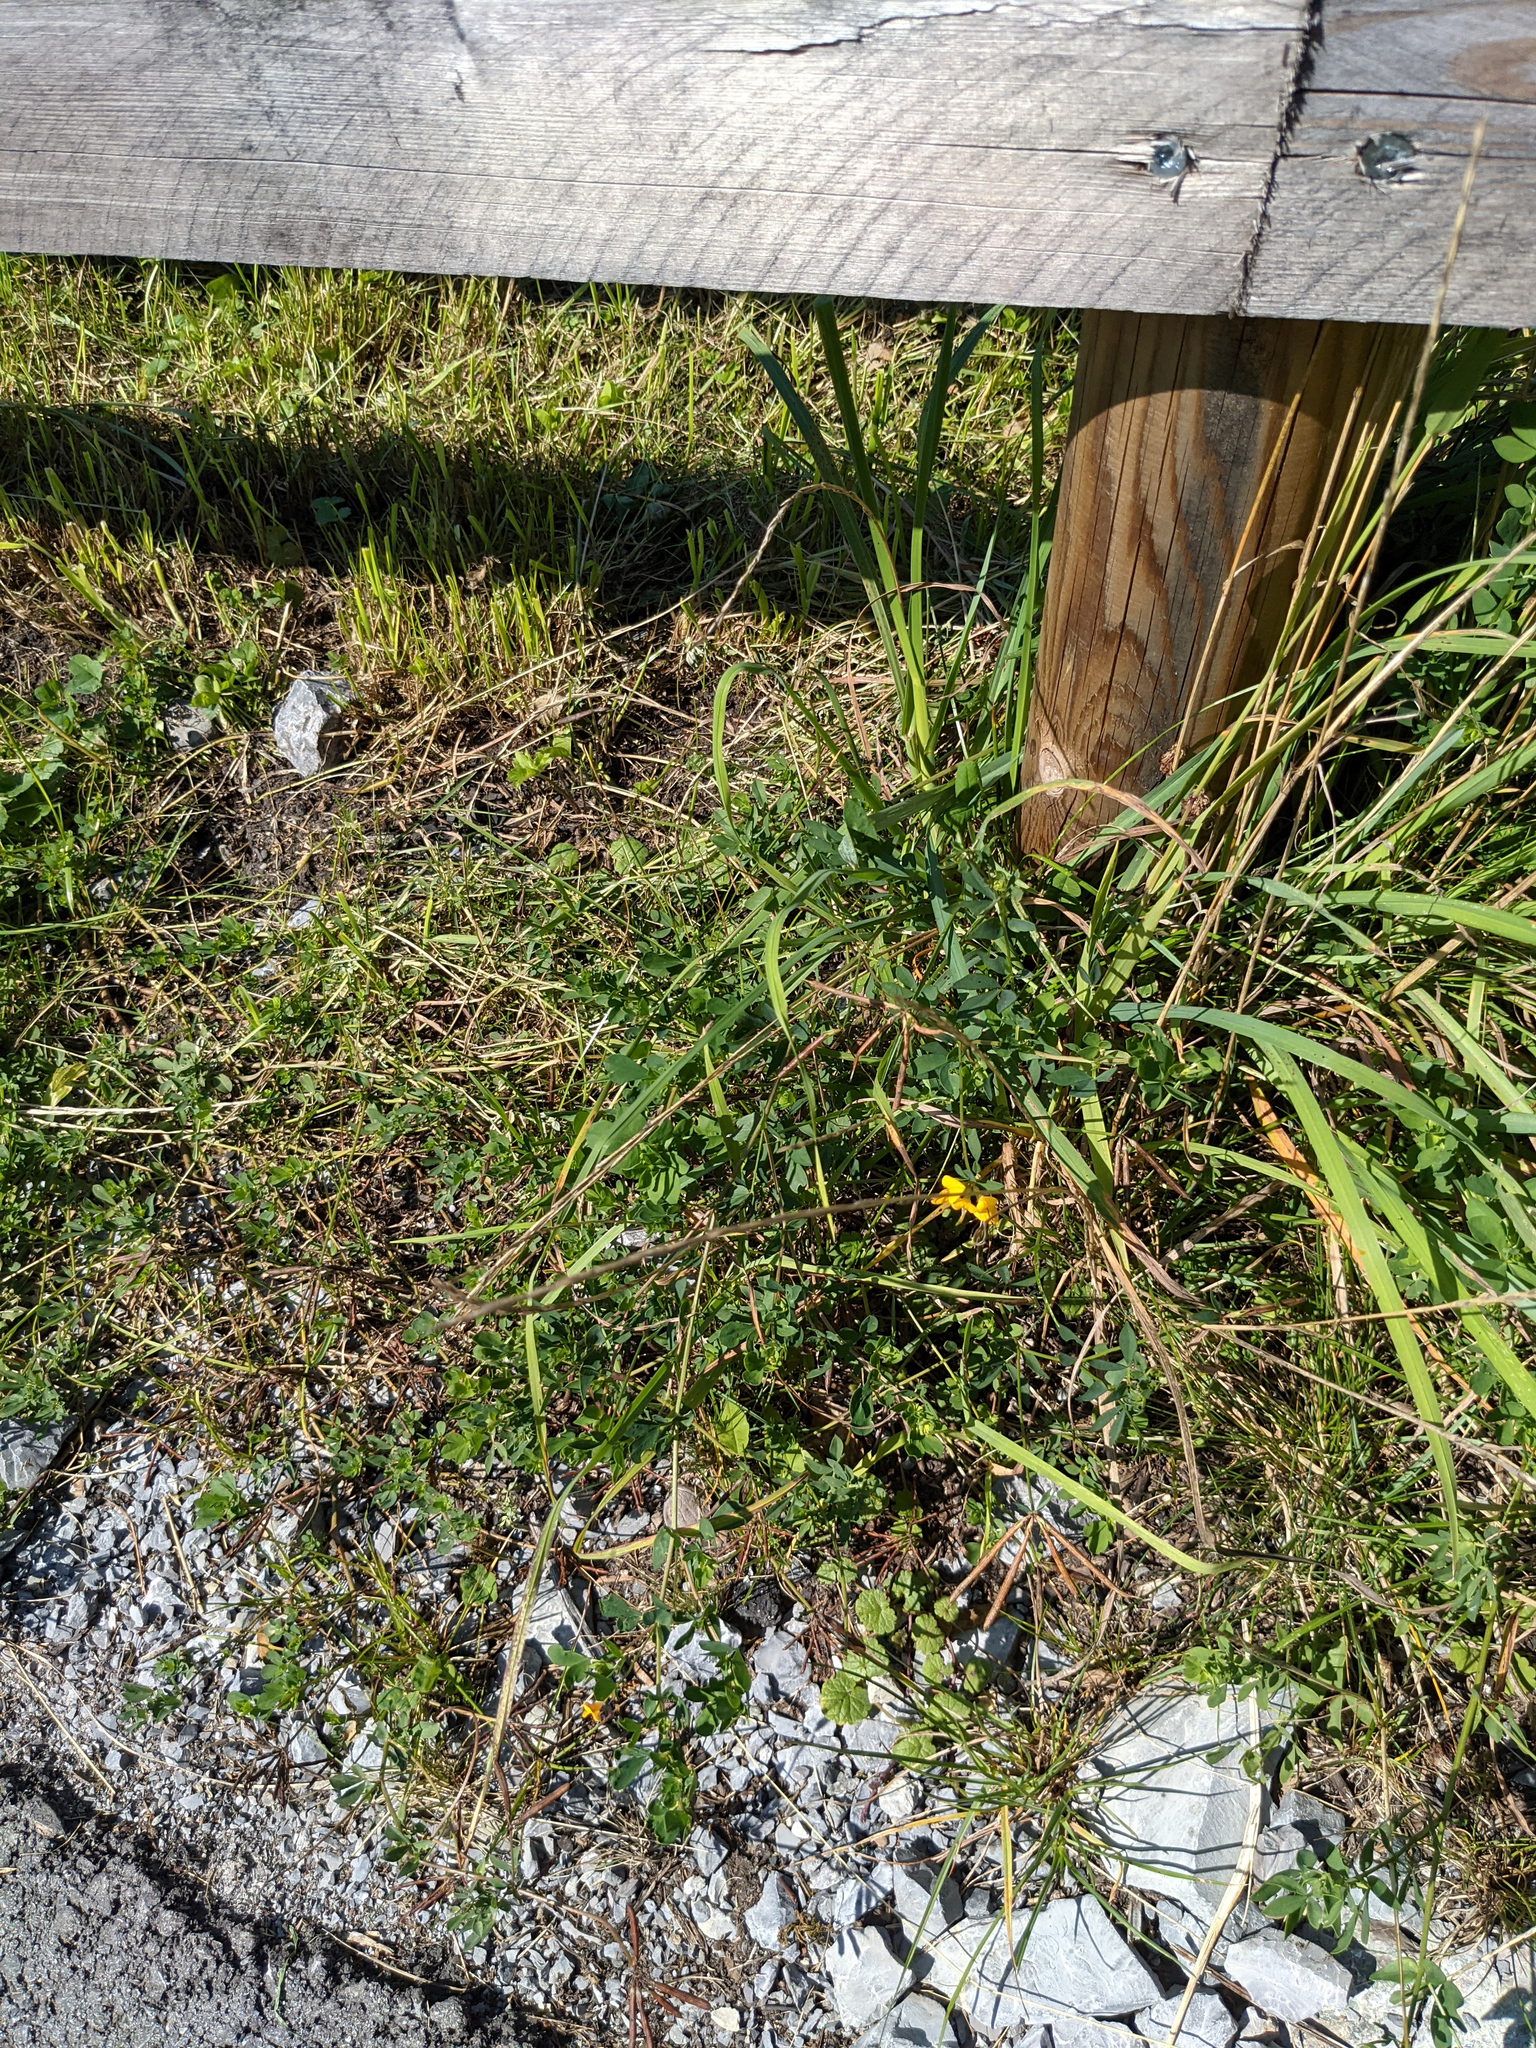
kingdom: Plantae
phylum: Tracheophyta
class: Magnoliopsida
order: Fabales
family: Fabaceae
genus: Lotus
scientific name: Lotus corniculatus
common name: Common bird's-foot-trefoil
